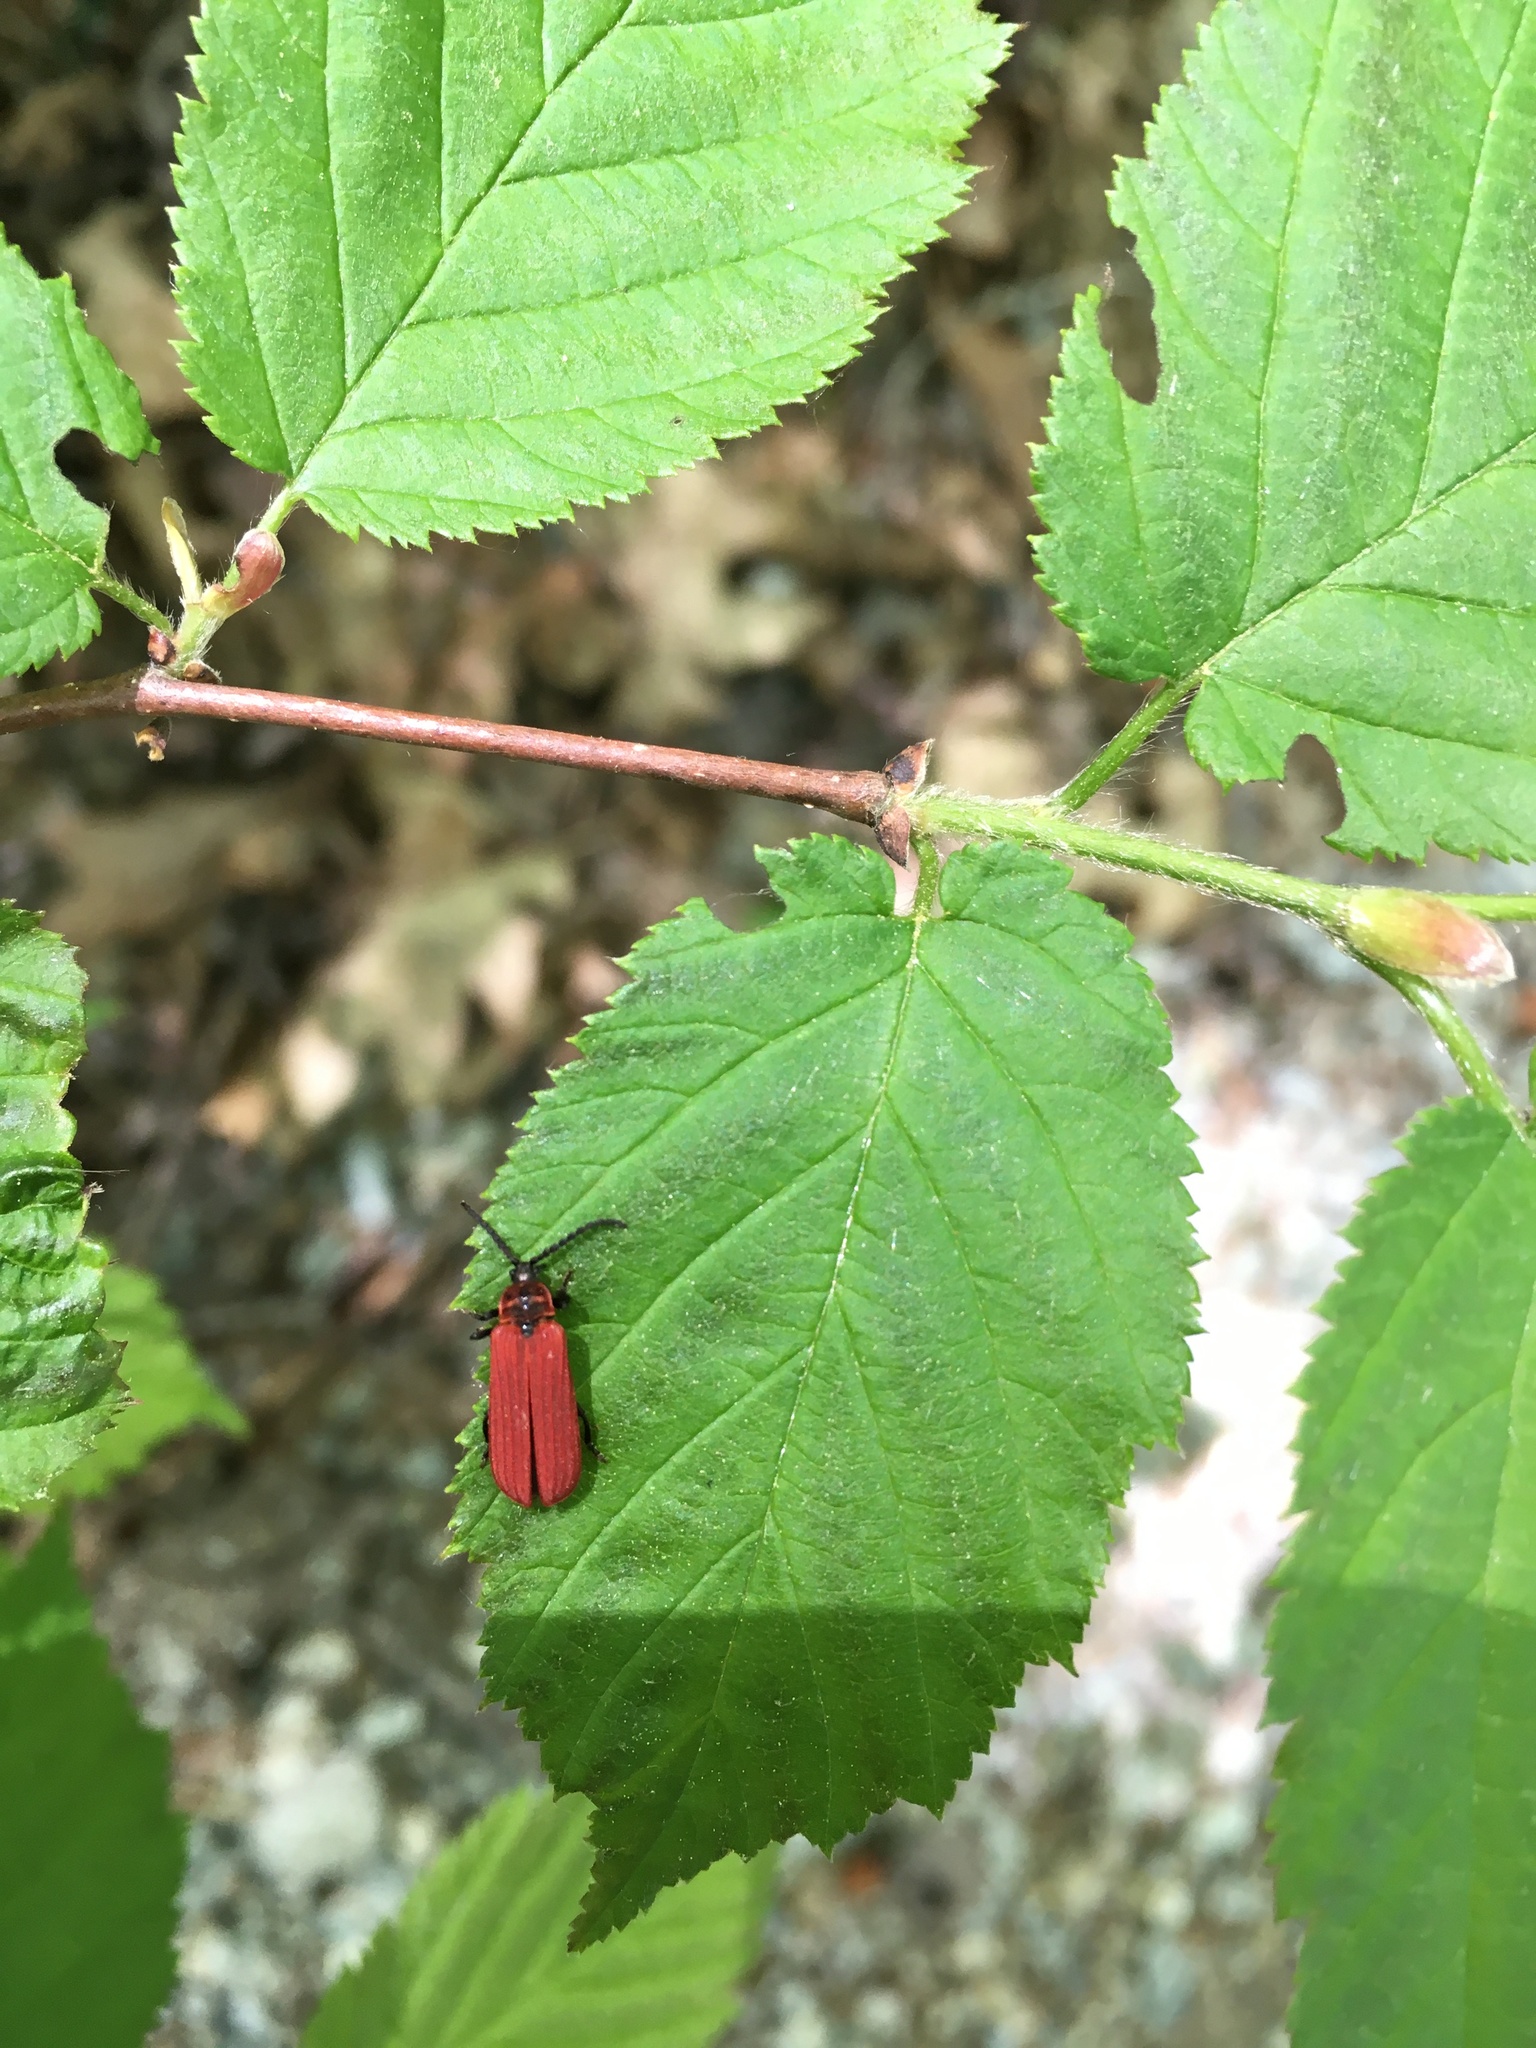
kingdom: Animalia
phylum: Arthropoda
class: Insecta
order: Coleoptera
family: Lycidae
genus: Dictyoptera
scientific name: Dictyoptera aurora
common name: Golden net-winged beetle
